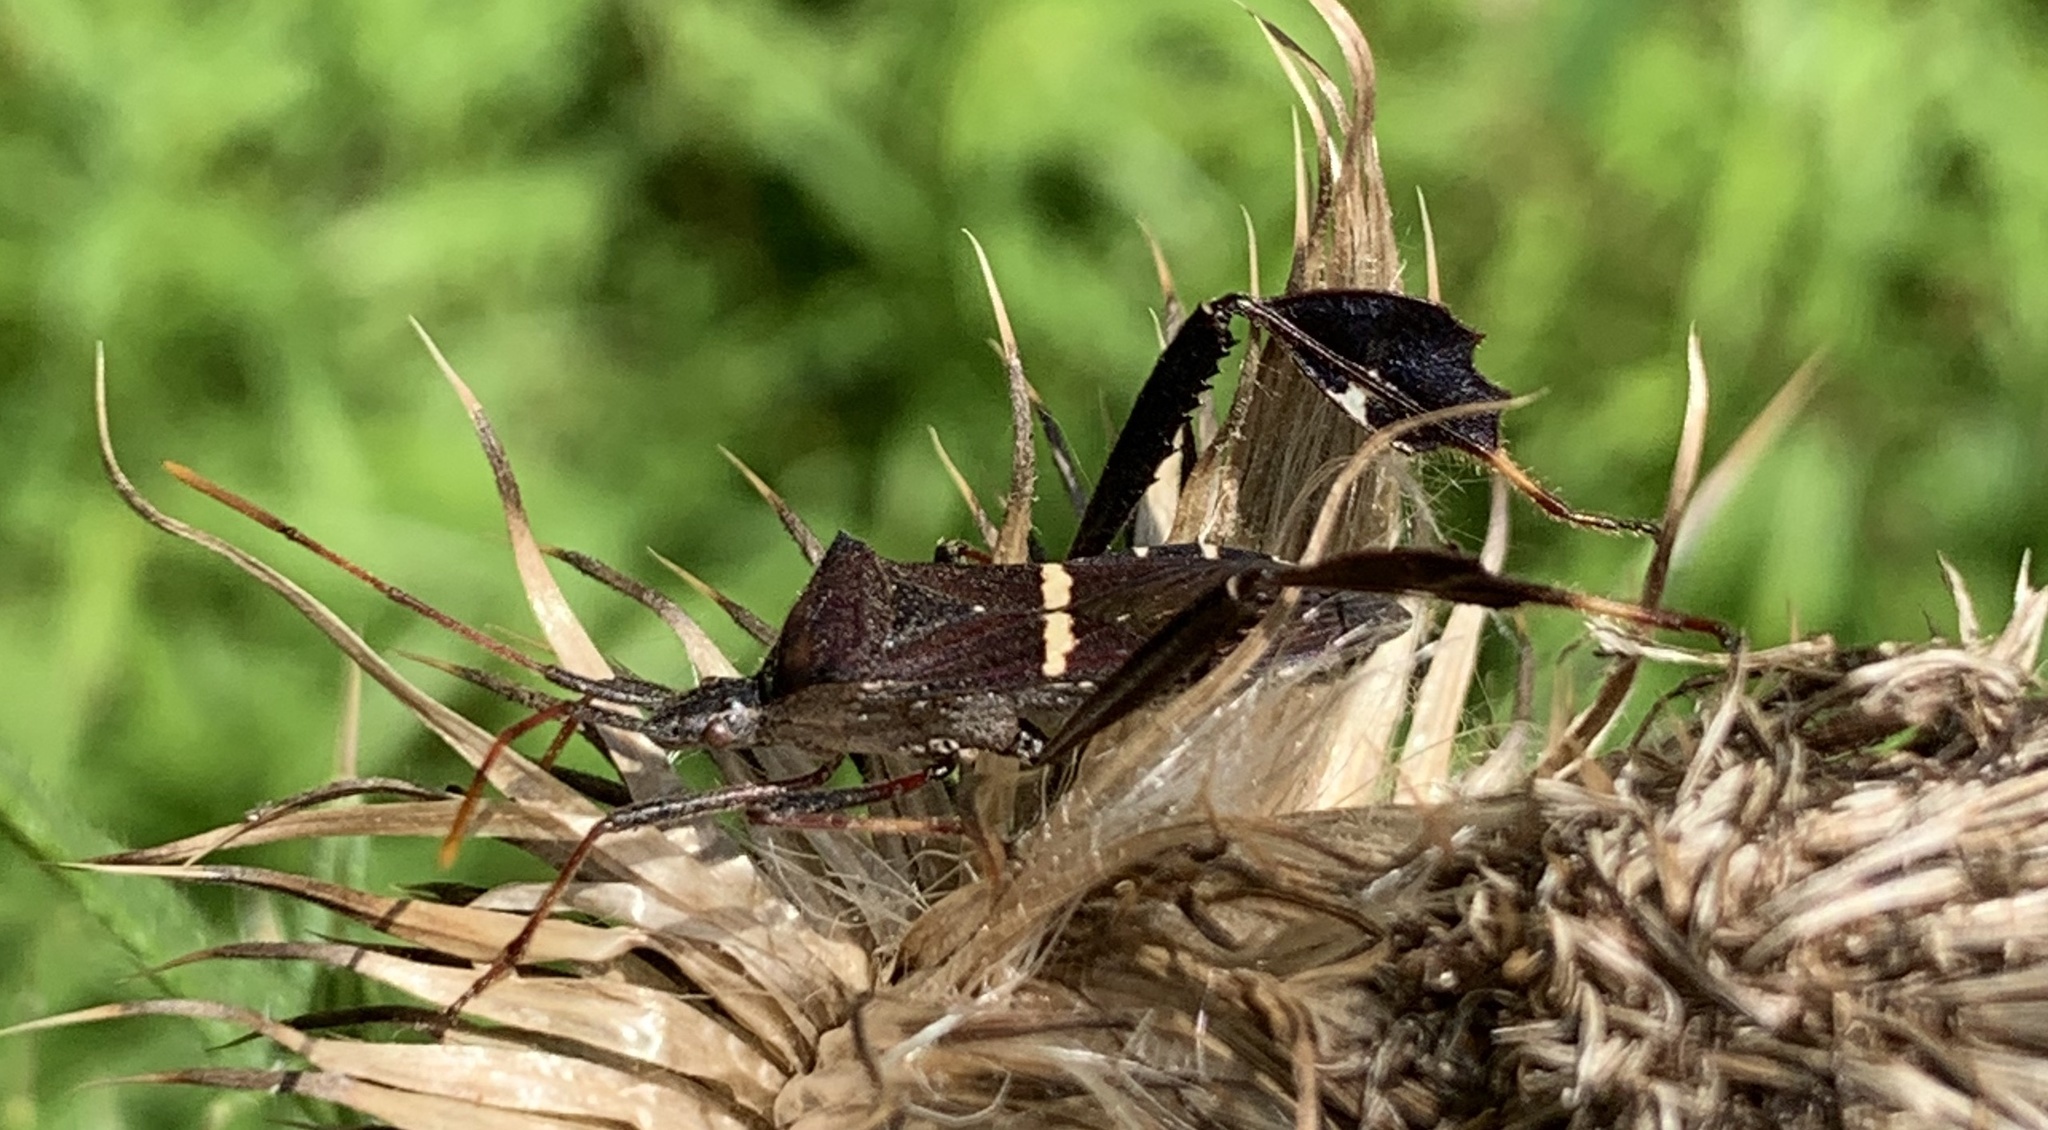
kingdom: Animalia
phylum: Arthropoda
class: Insecta
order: Hemiptera
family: Coreidae
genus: Leptoglossus
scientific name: Leptoglossus phyllopus
